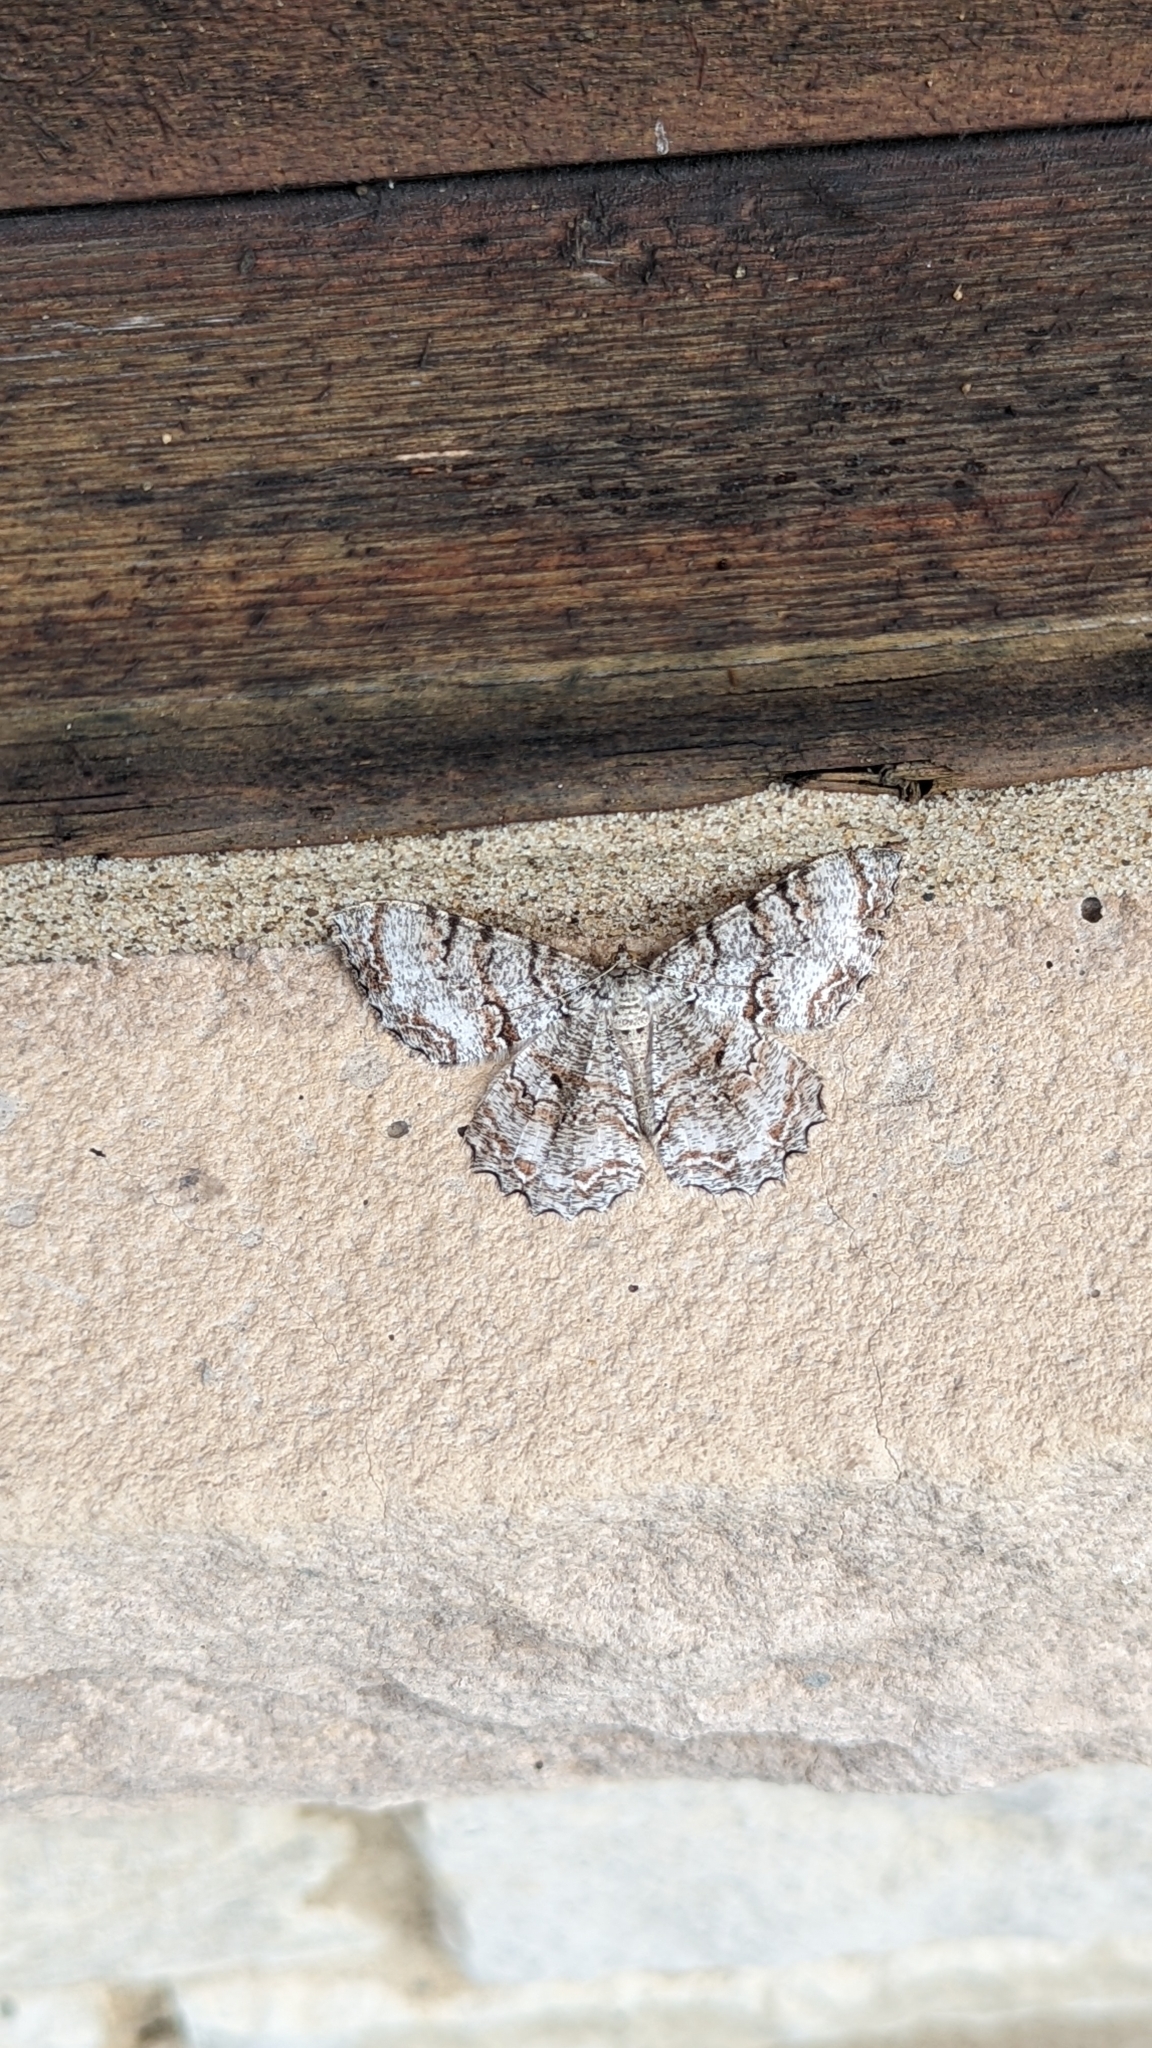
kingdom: Animalia
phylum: Arthropoda
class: Insecta
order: Lepidoptera
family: Geometridae
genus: Epimecis
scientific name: Epimecis hortaria
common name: Tulip-tree beauty
